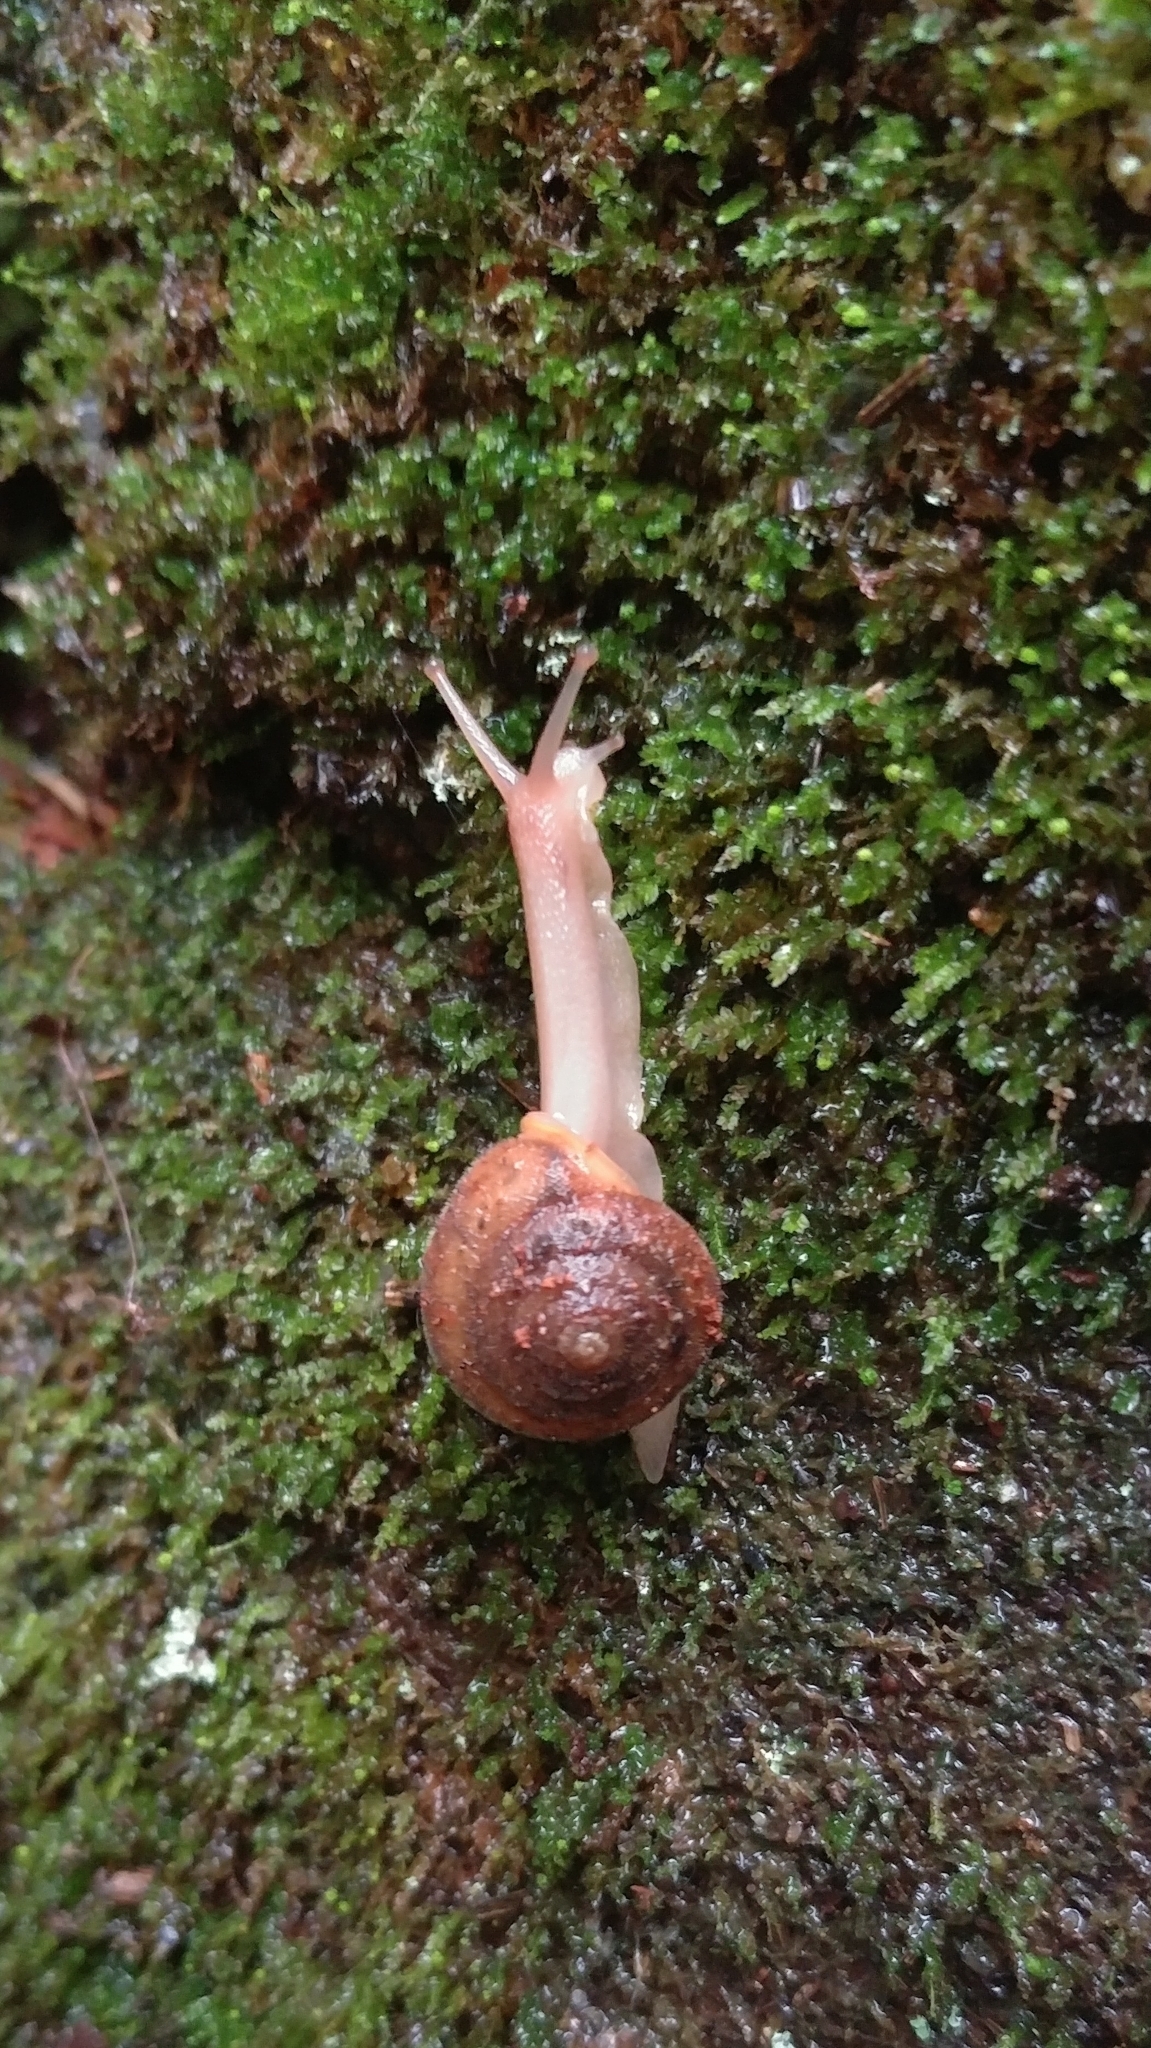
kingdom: Animalia
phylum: Mollusca
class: Gastropoda
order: Stylommatophora
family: Polygyridae
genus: Vespericola
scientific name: Vespericola columbianus
